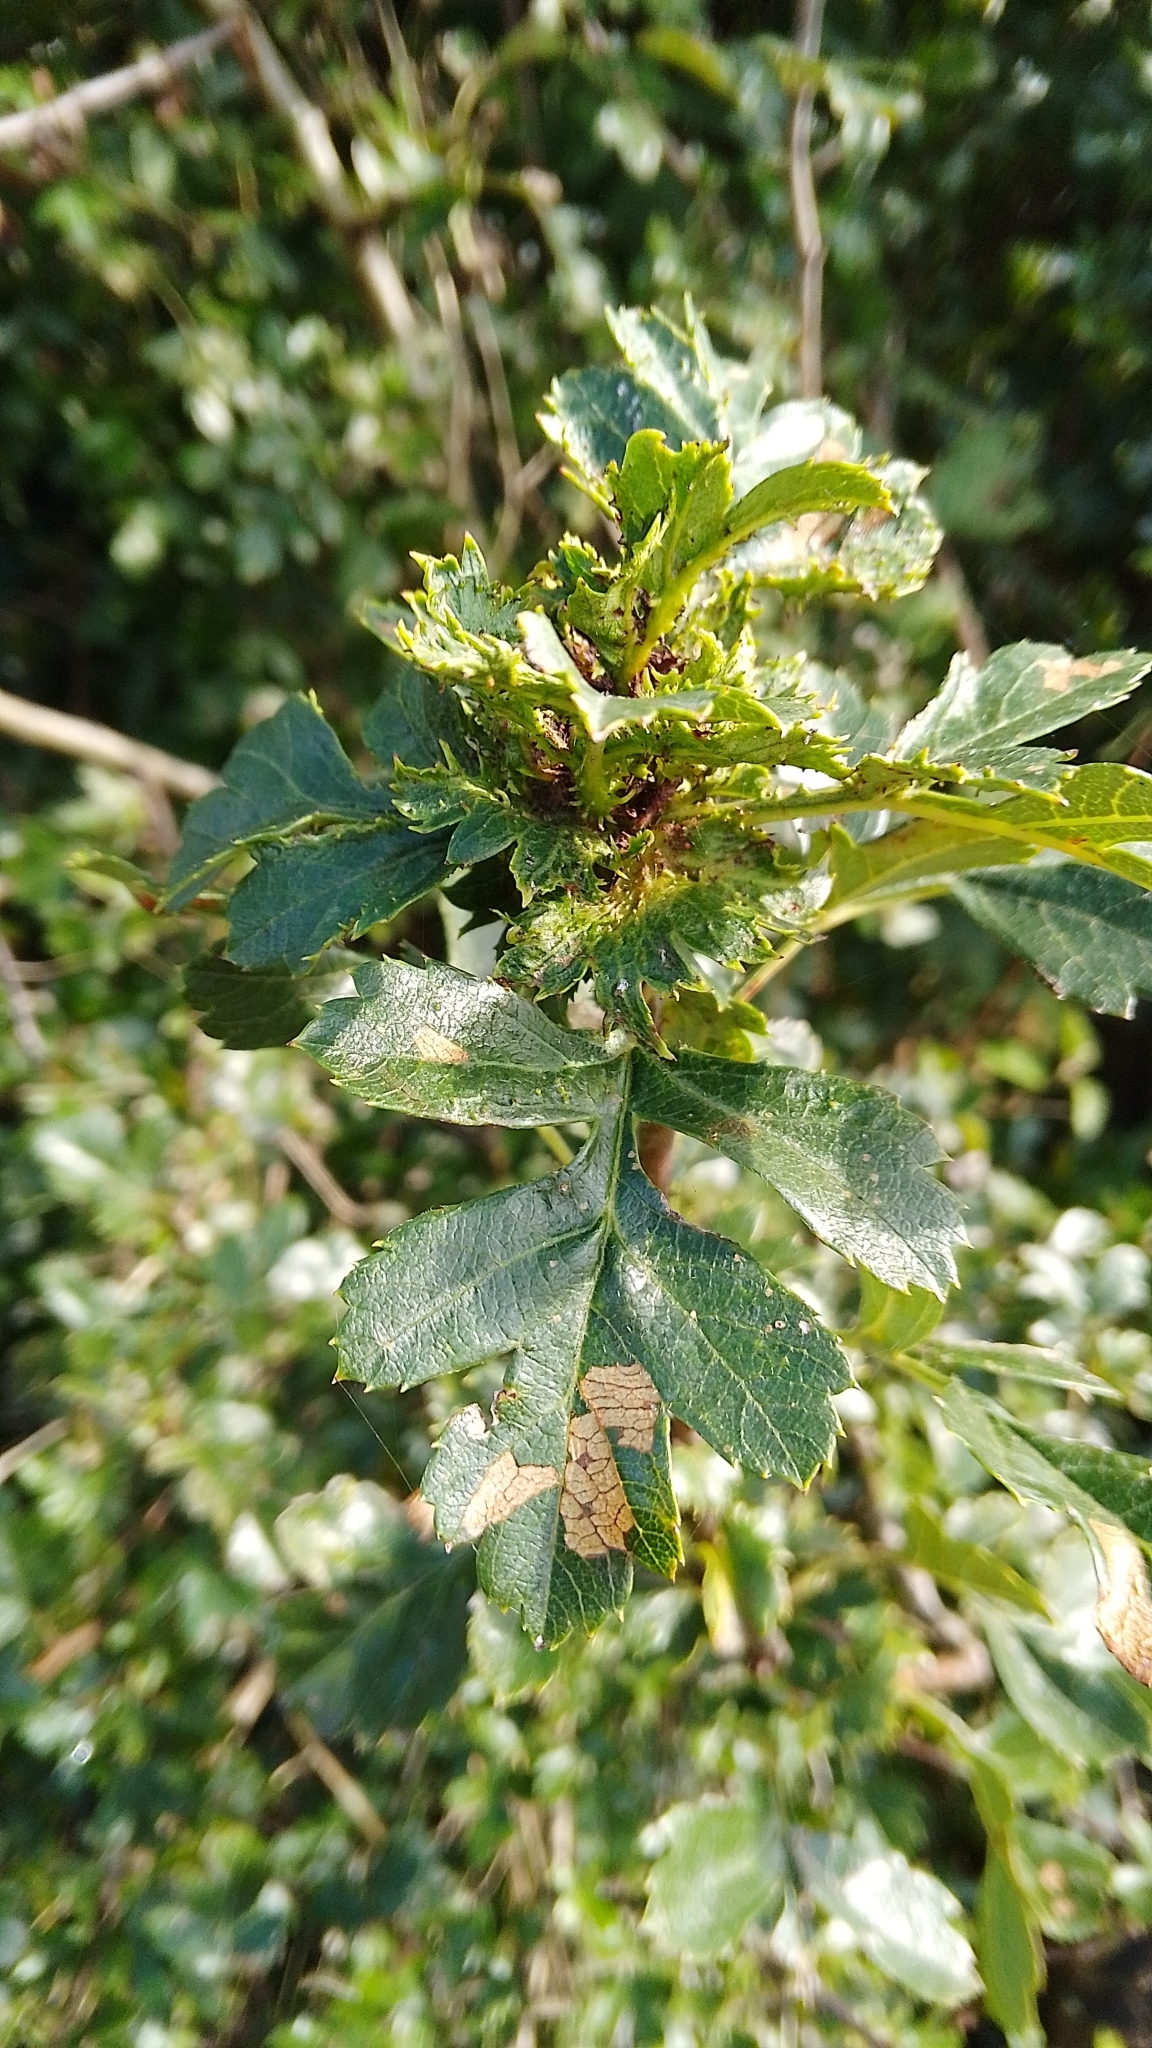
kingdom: Animalia
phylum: Arthropoda
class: Insecta
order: Diptera
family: Cecidomyiidae
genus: Dasineura
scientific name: Dasineura crataegi
